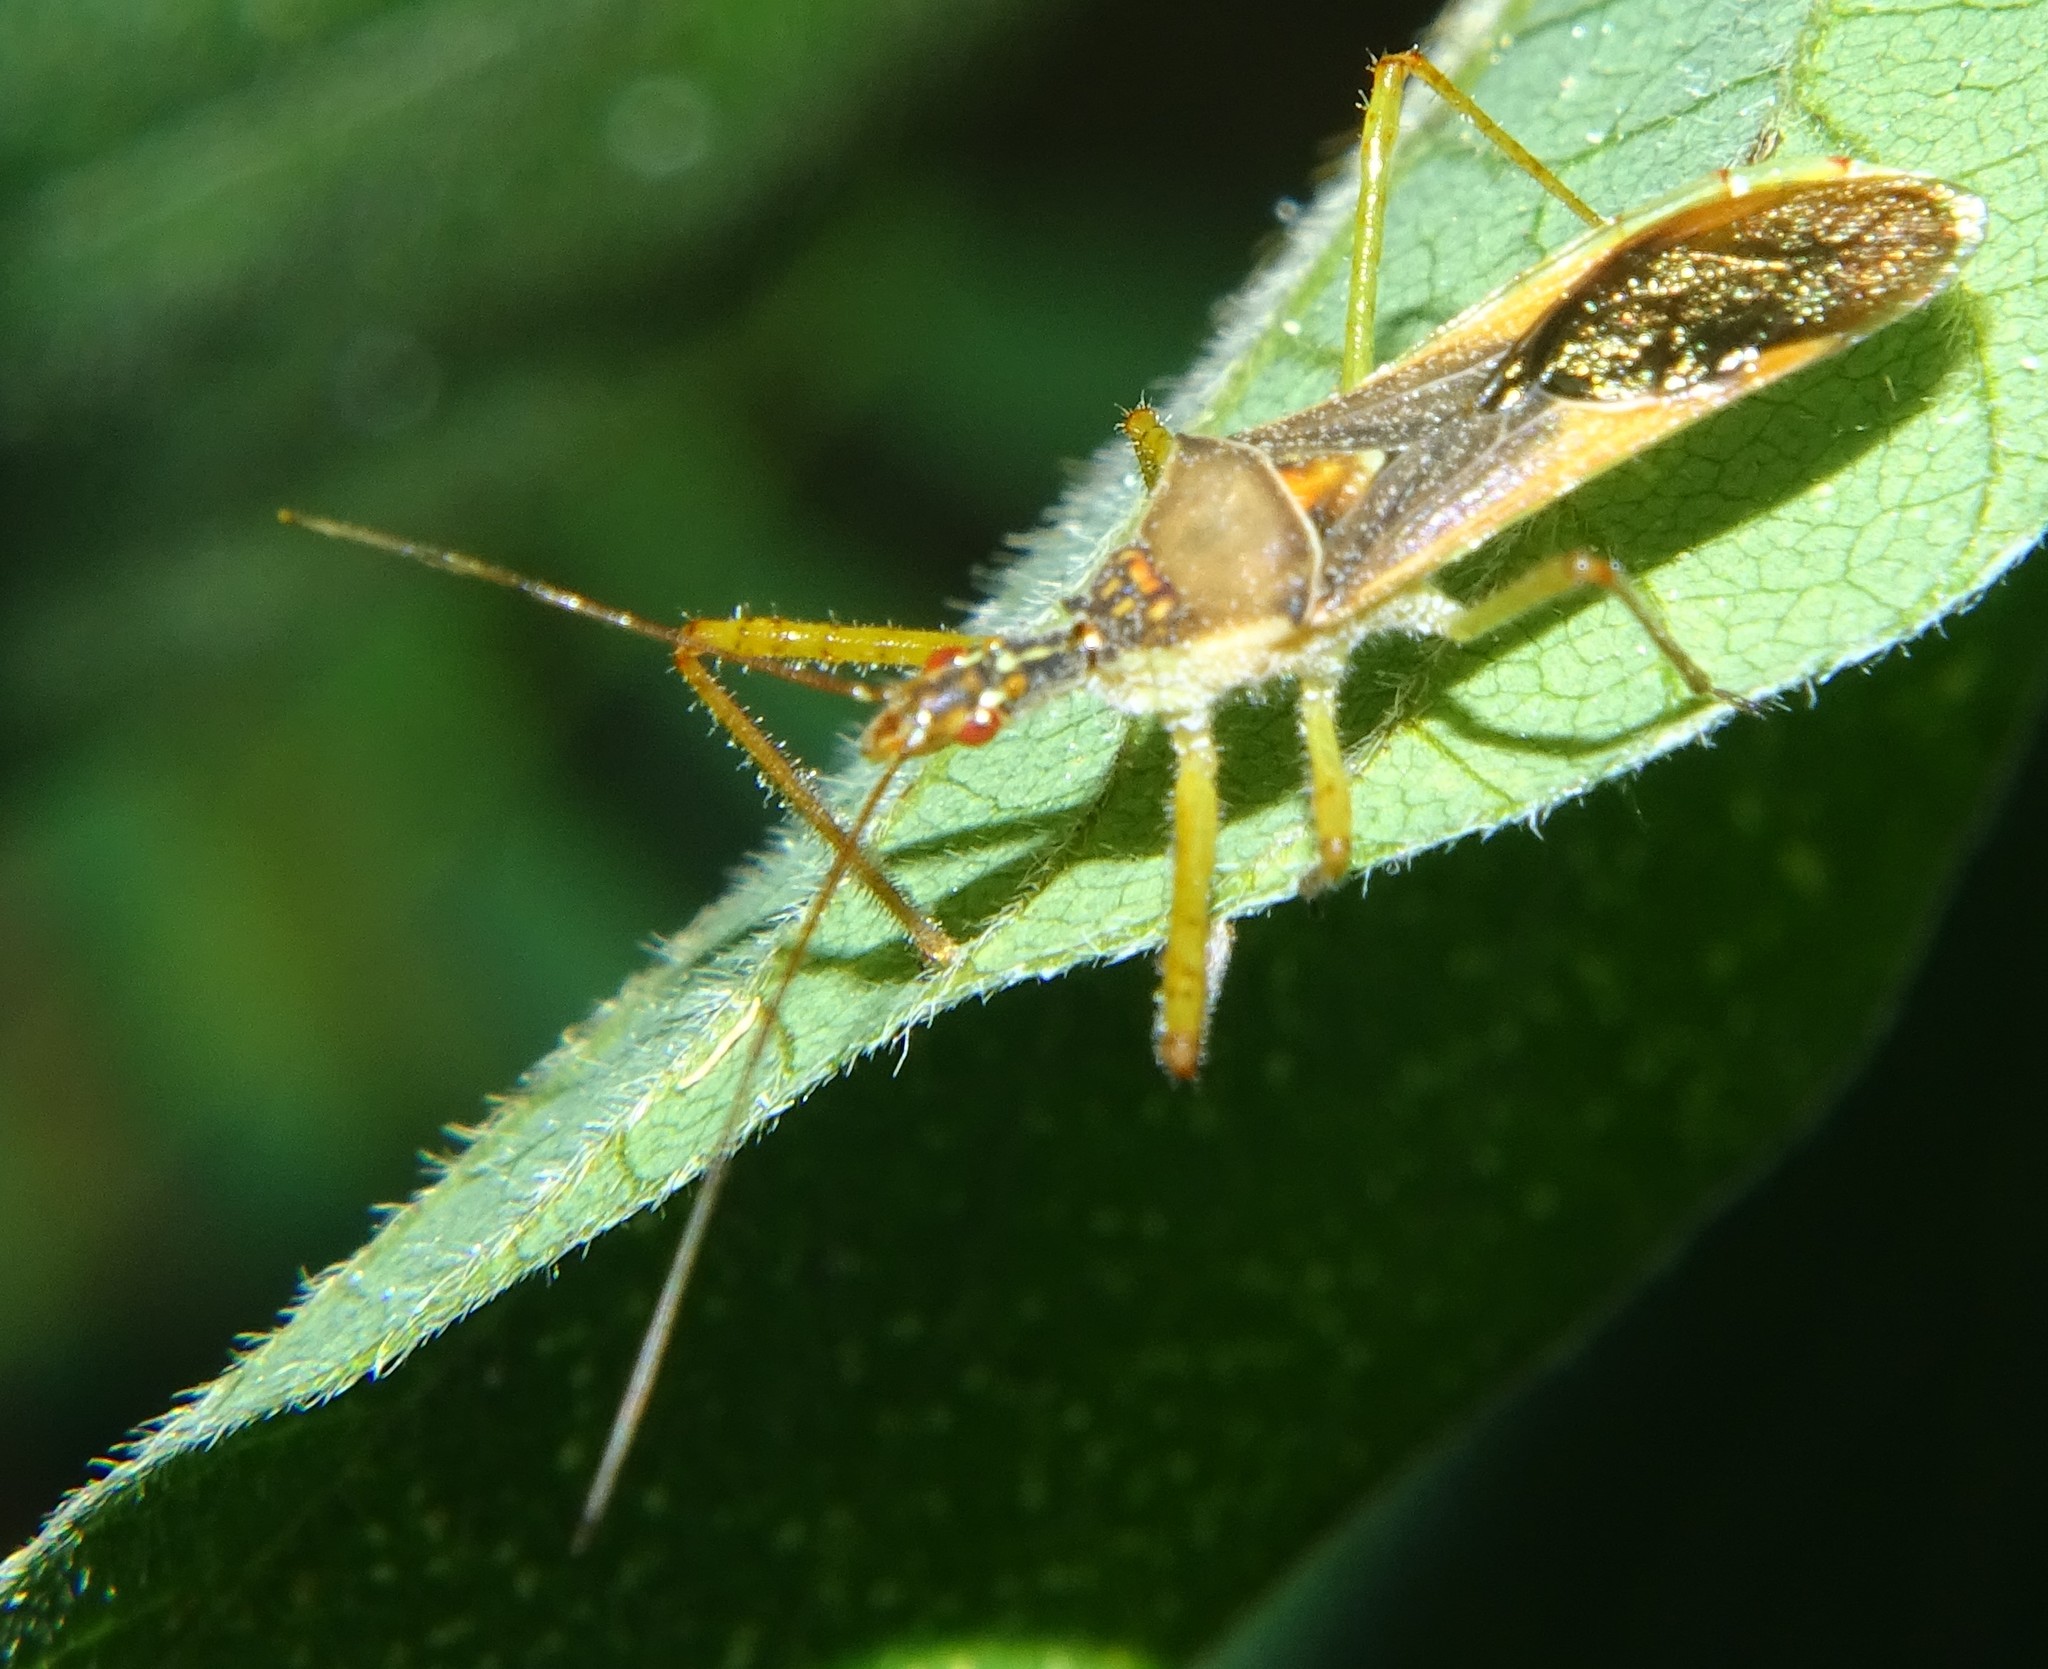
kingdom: Animalia
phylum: Arthropoda
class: Insecta
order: Hemiptera
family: Reduviidae
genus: Zelus
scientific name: Zelus renardii
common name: Assassin bug
